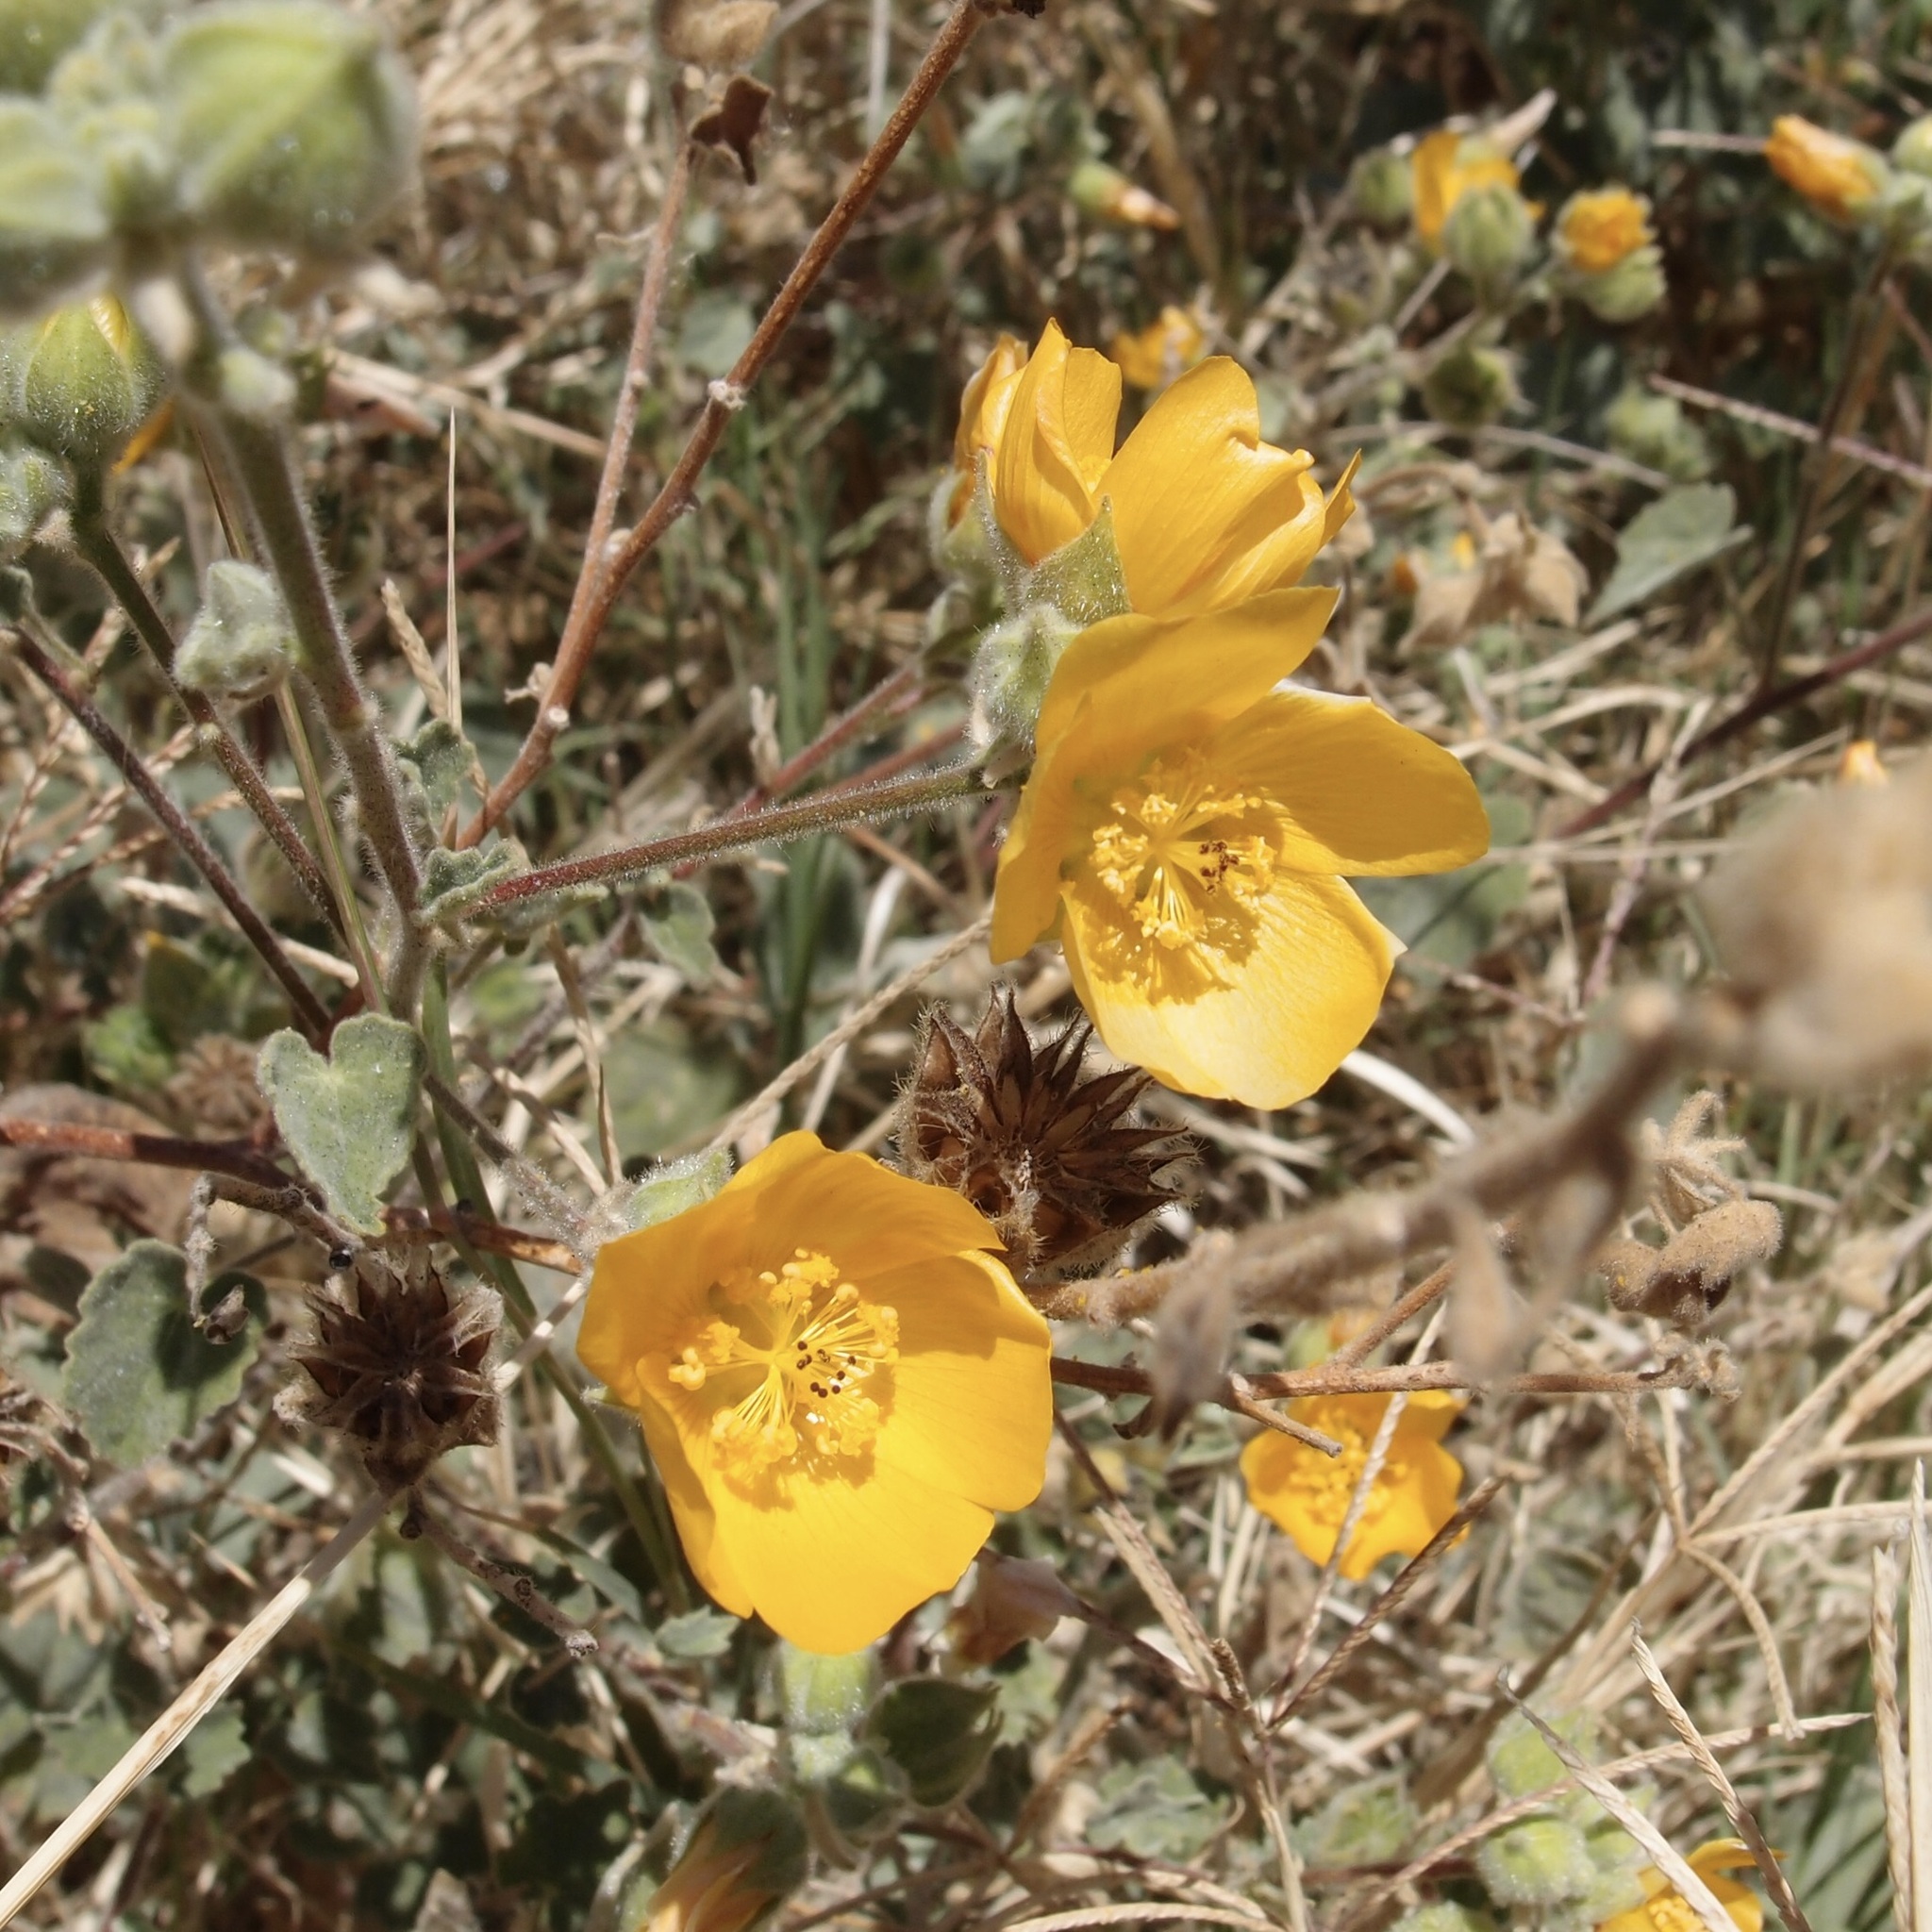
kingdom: Plantae
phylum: Tracheophyta
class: Magnoliopsida
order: Malvales
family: Malvaceae
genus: Abutilon
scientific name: Abutilon palmeri
